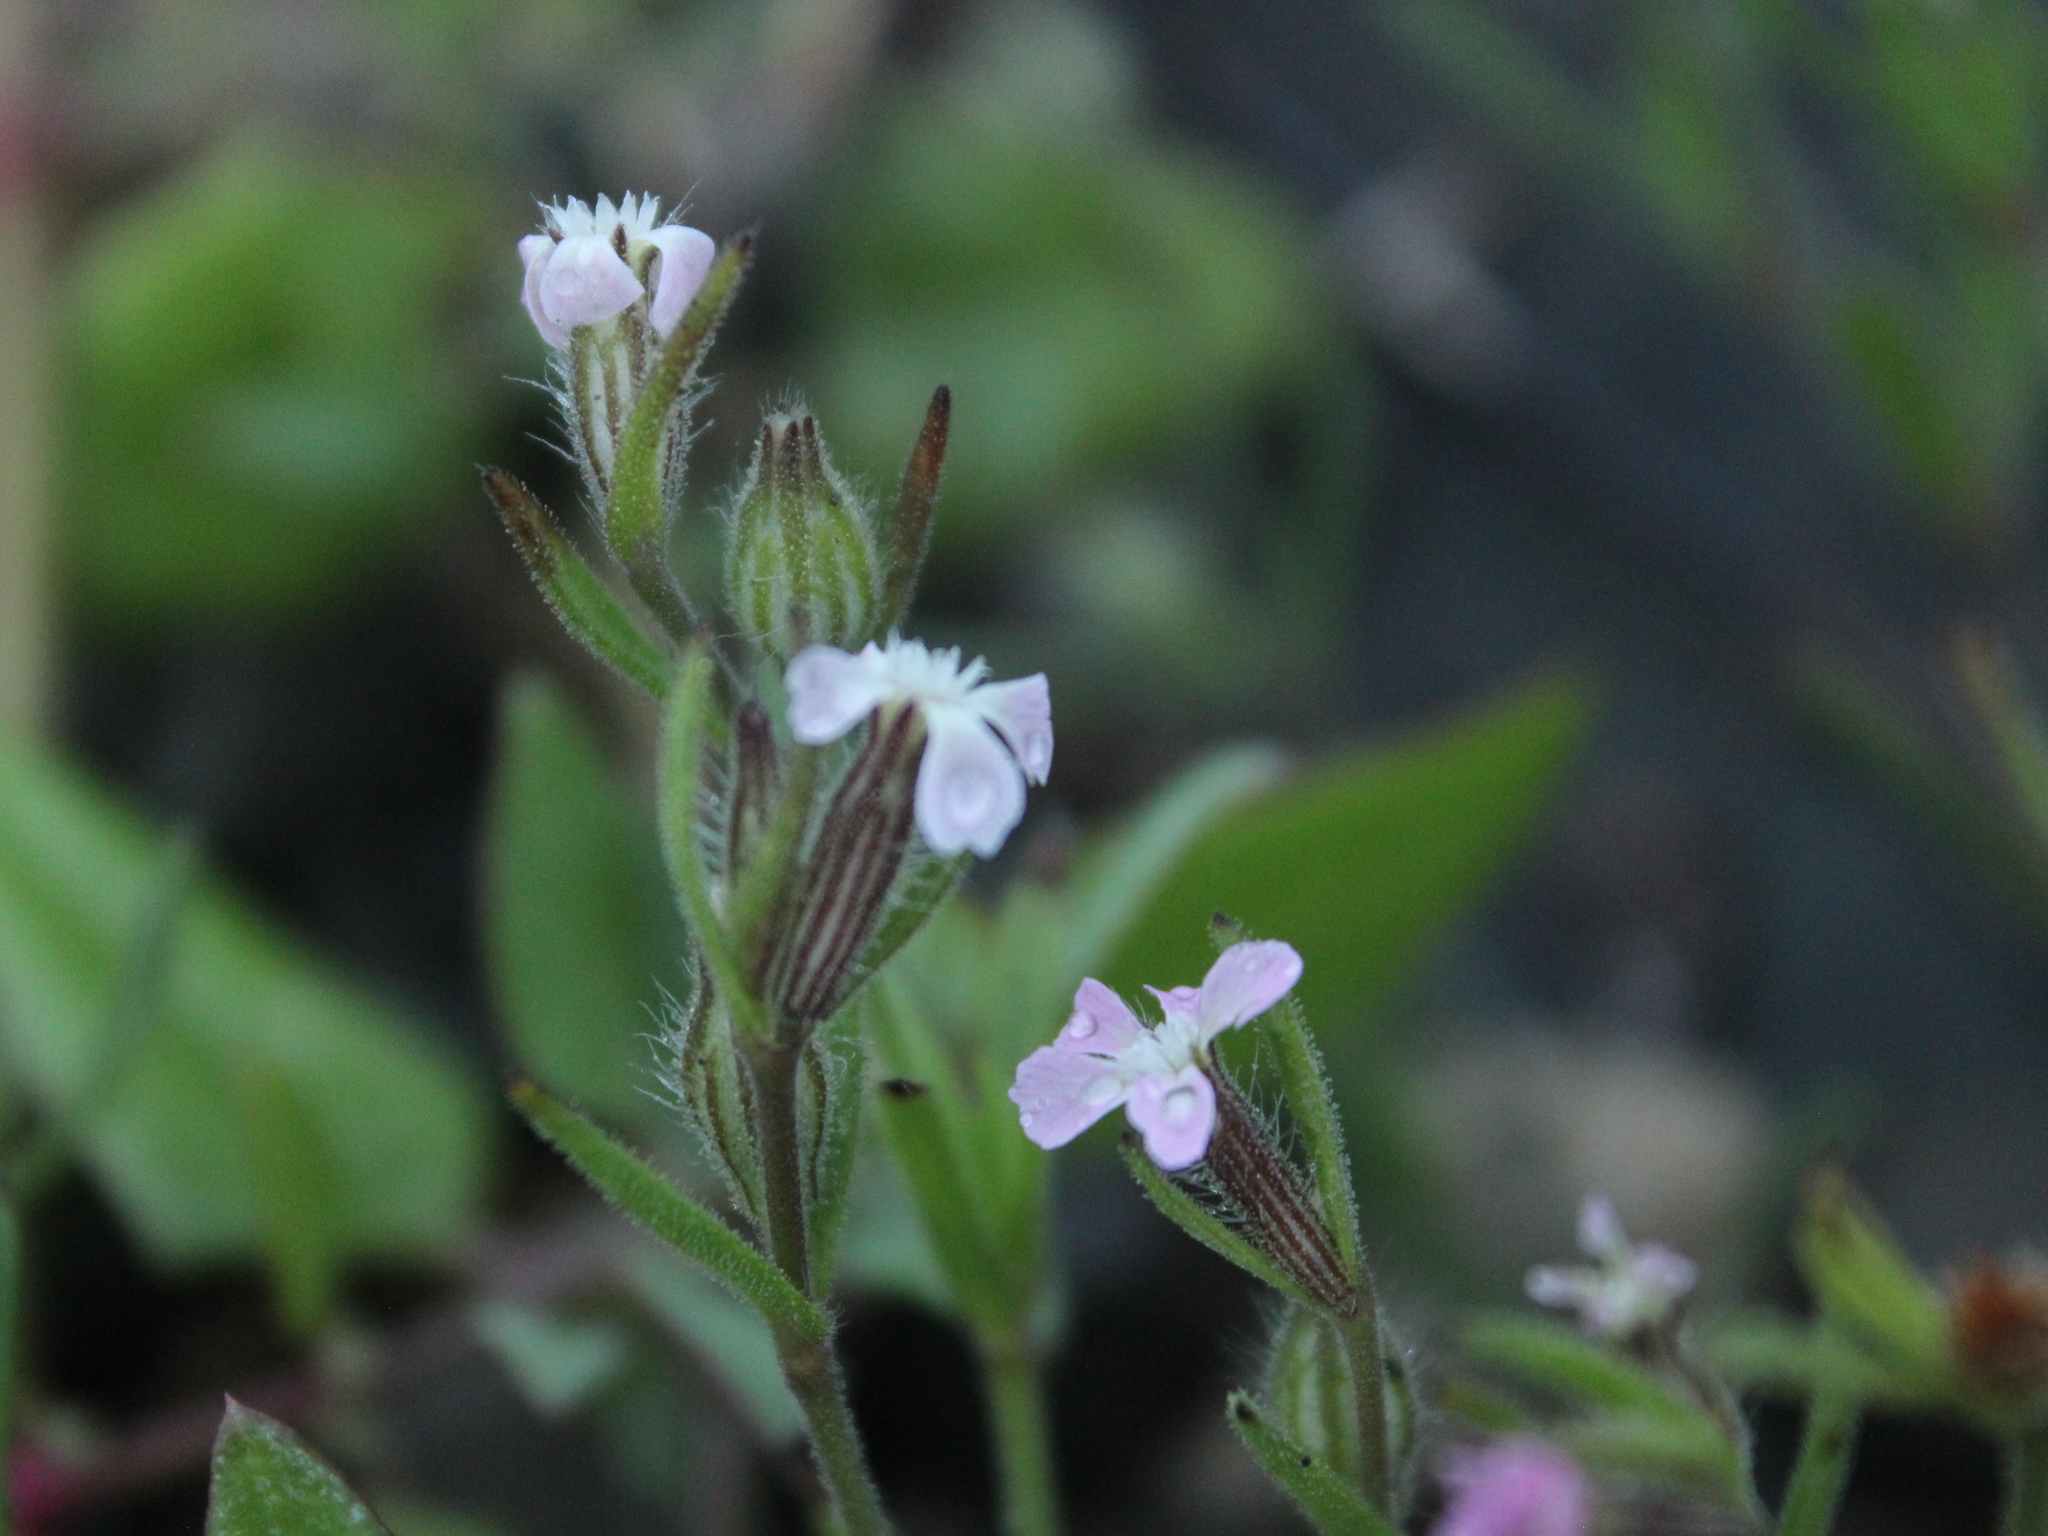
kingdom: Plantae
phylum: Tracheophyta
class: Magnoliopsida
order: Caryophyllales
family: Caryophyllaceae
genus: Silene
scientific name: Silene gallica
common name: Small-flowered catchfly
